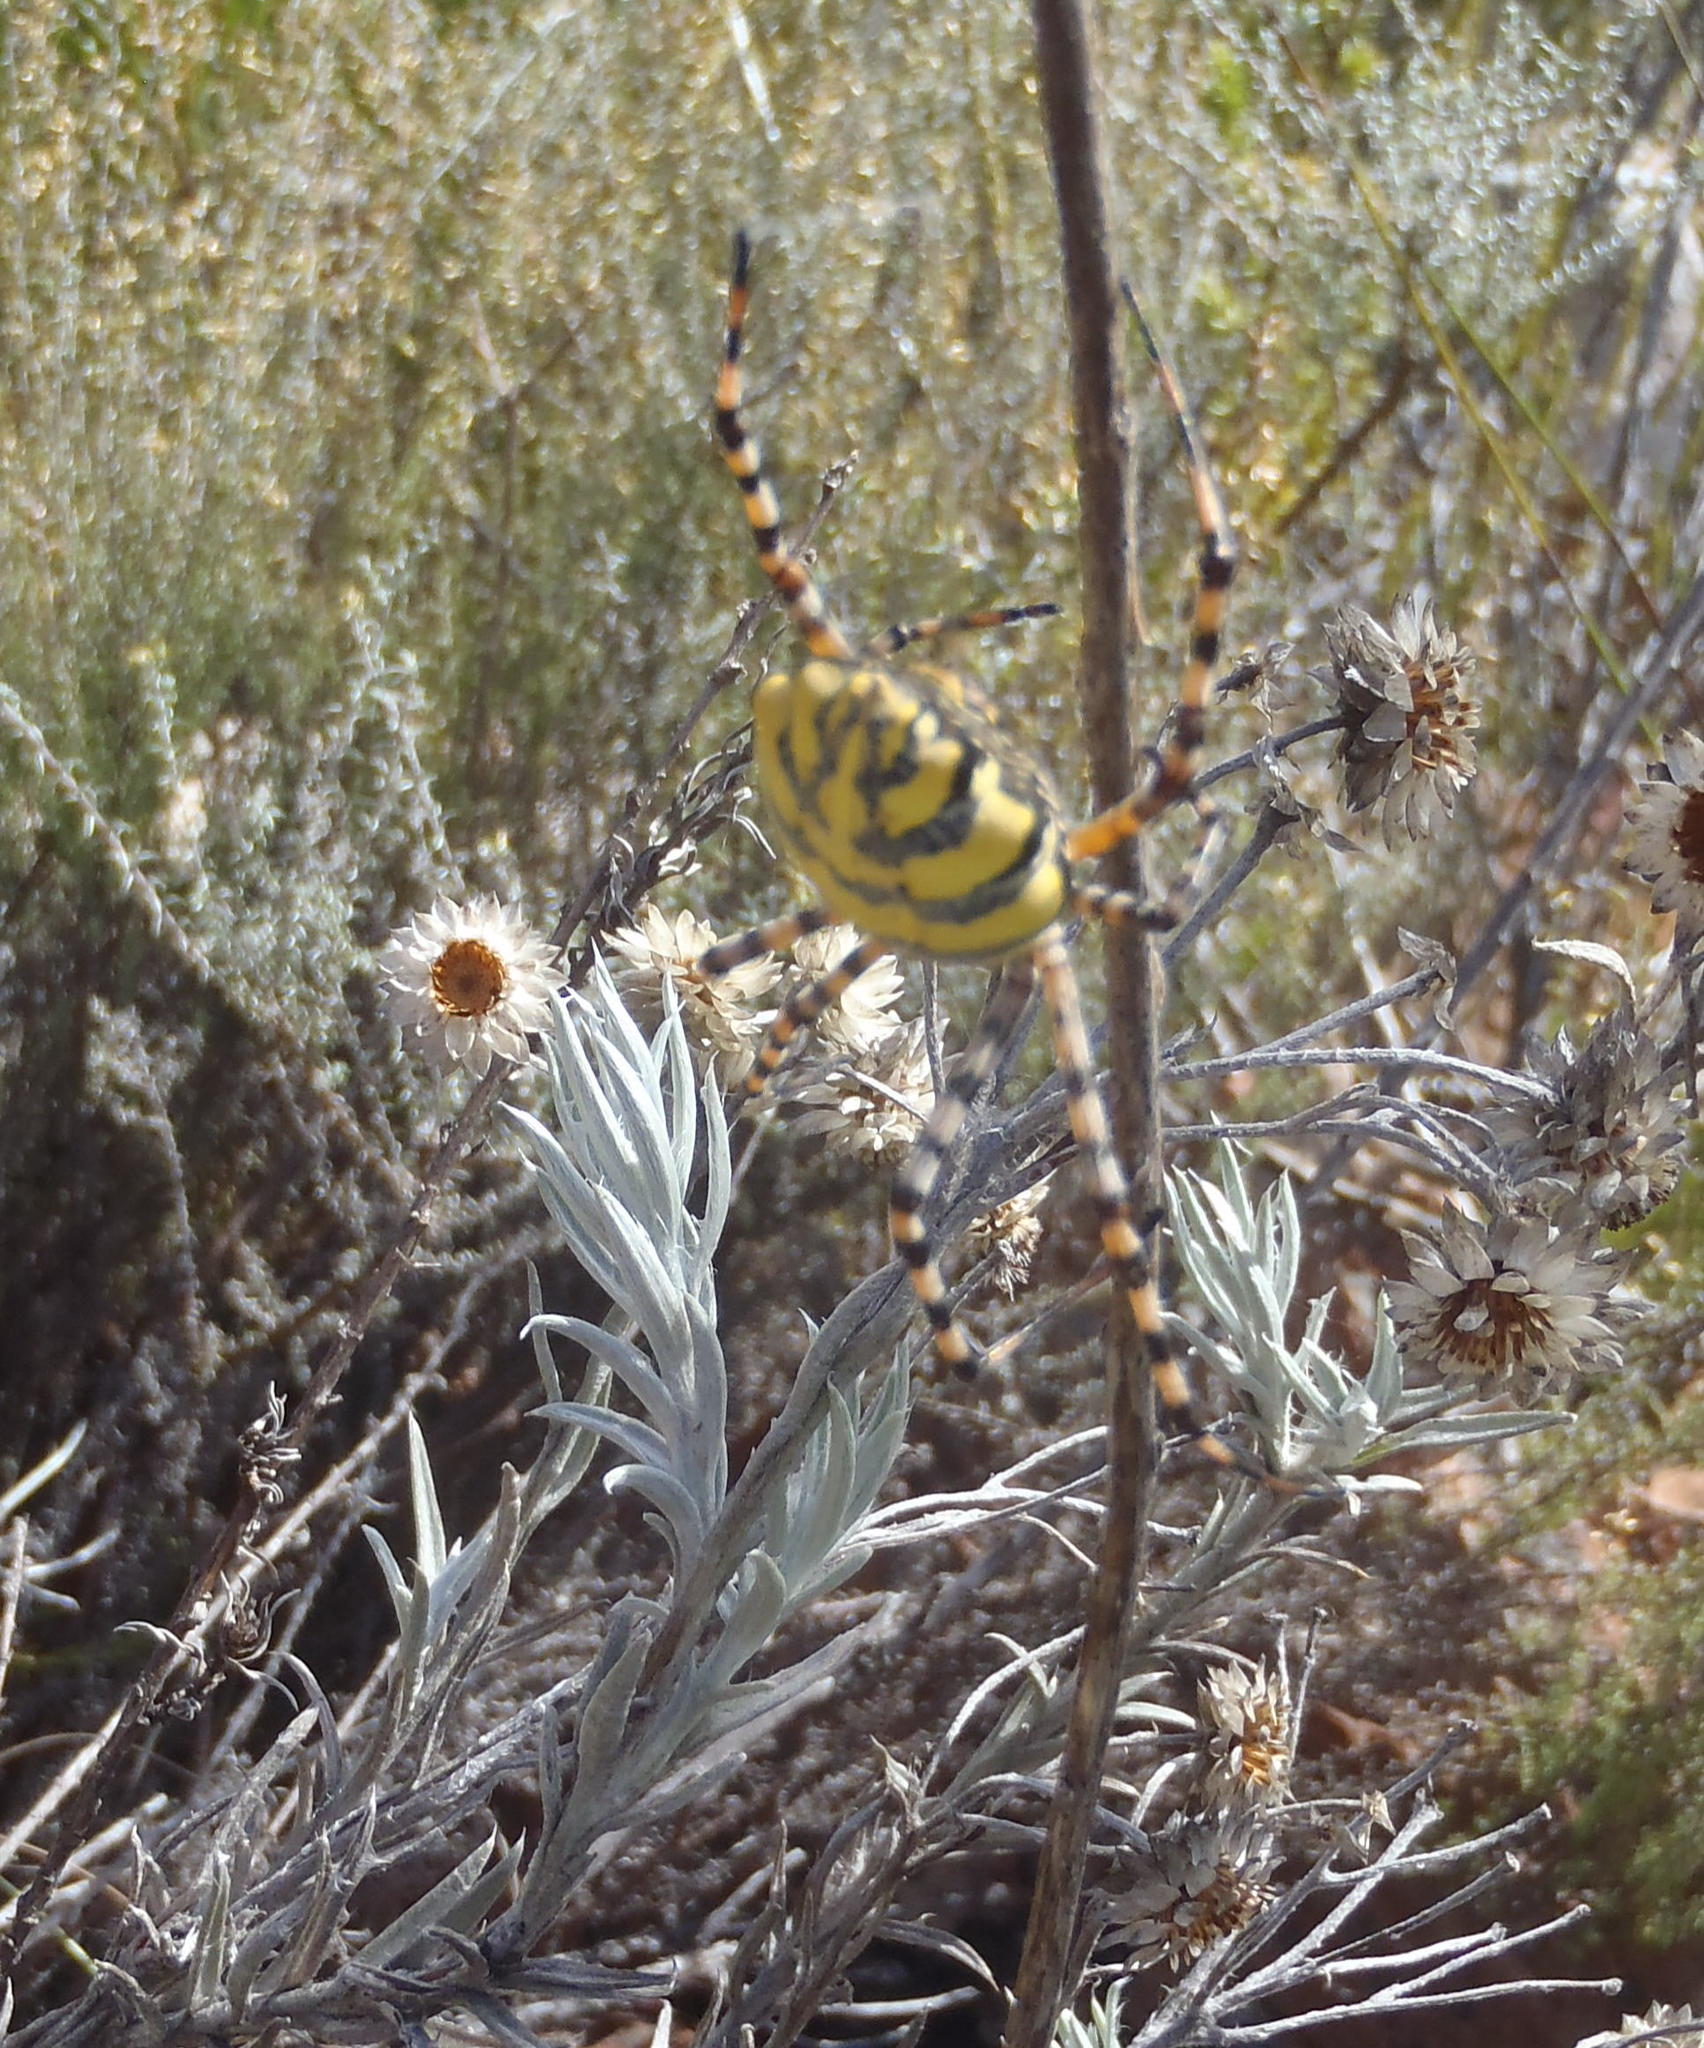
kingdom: Animalia
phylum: Arthropoda
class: Arachnida
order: Araneae
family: Araneidae
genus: Argiope
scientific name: Argiope australis
